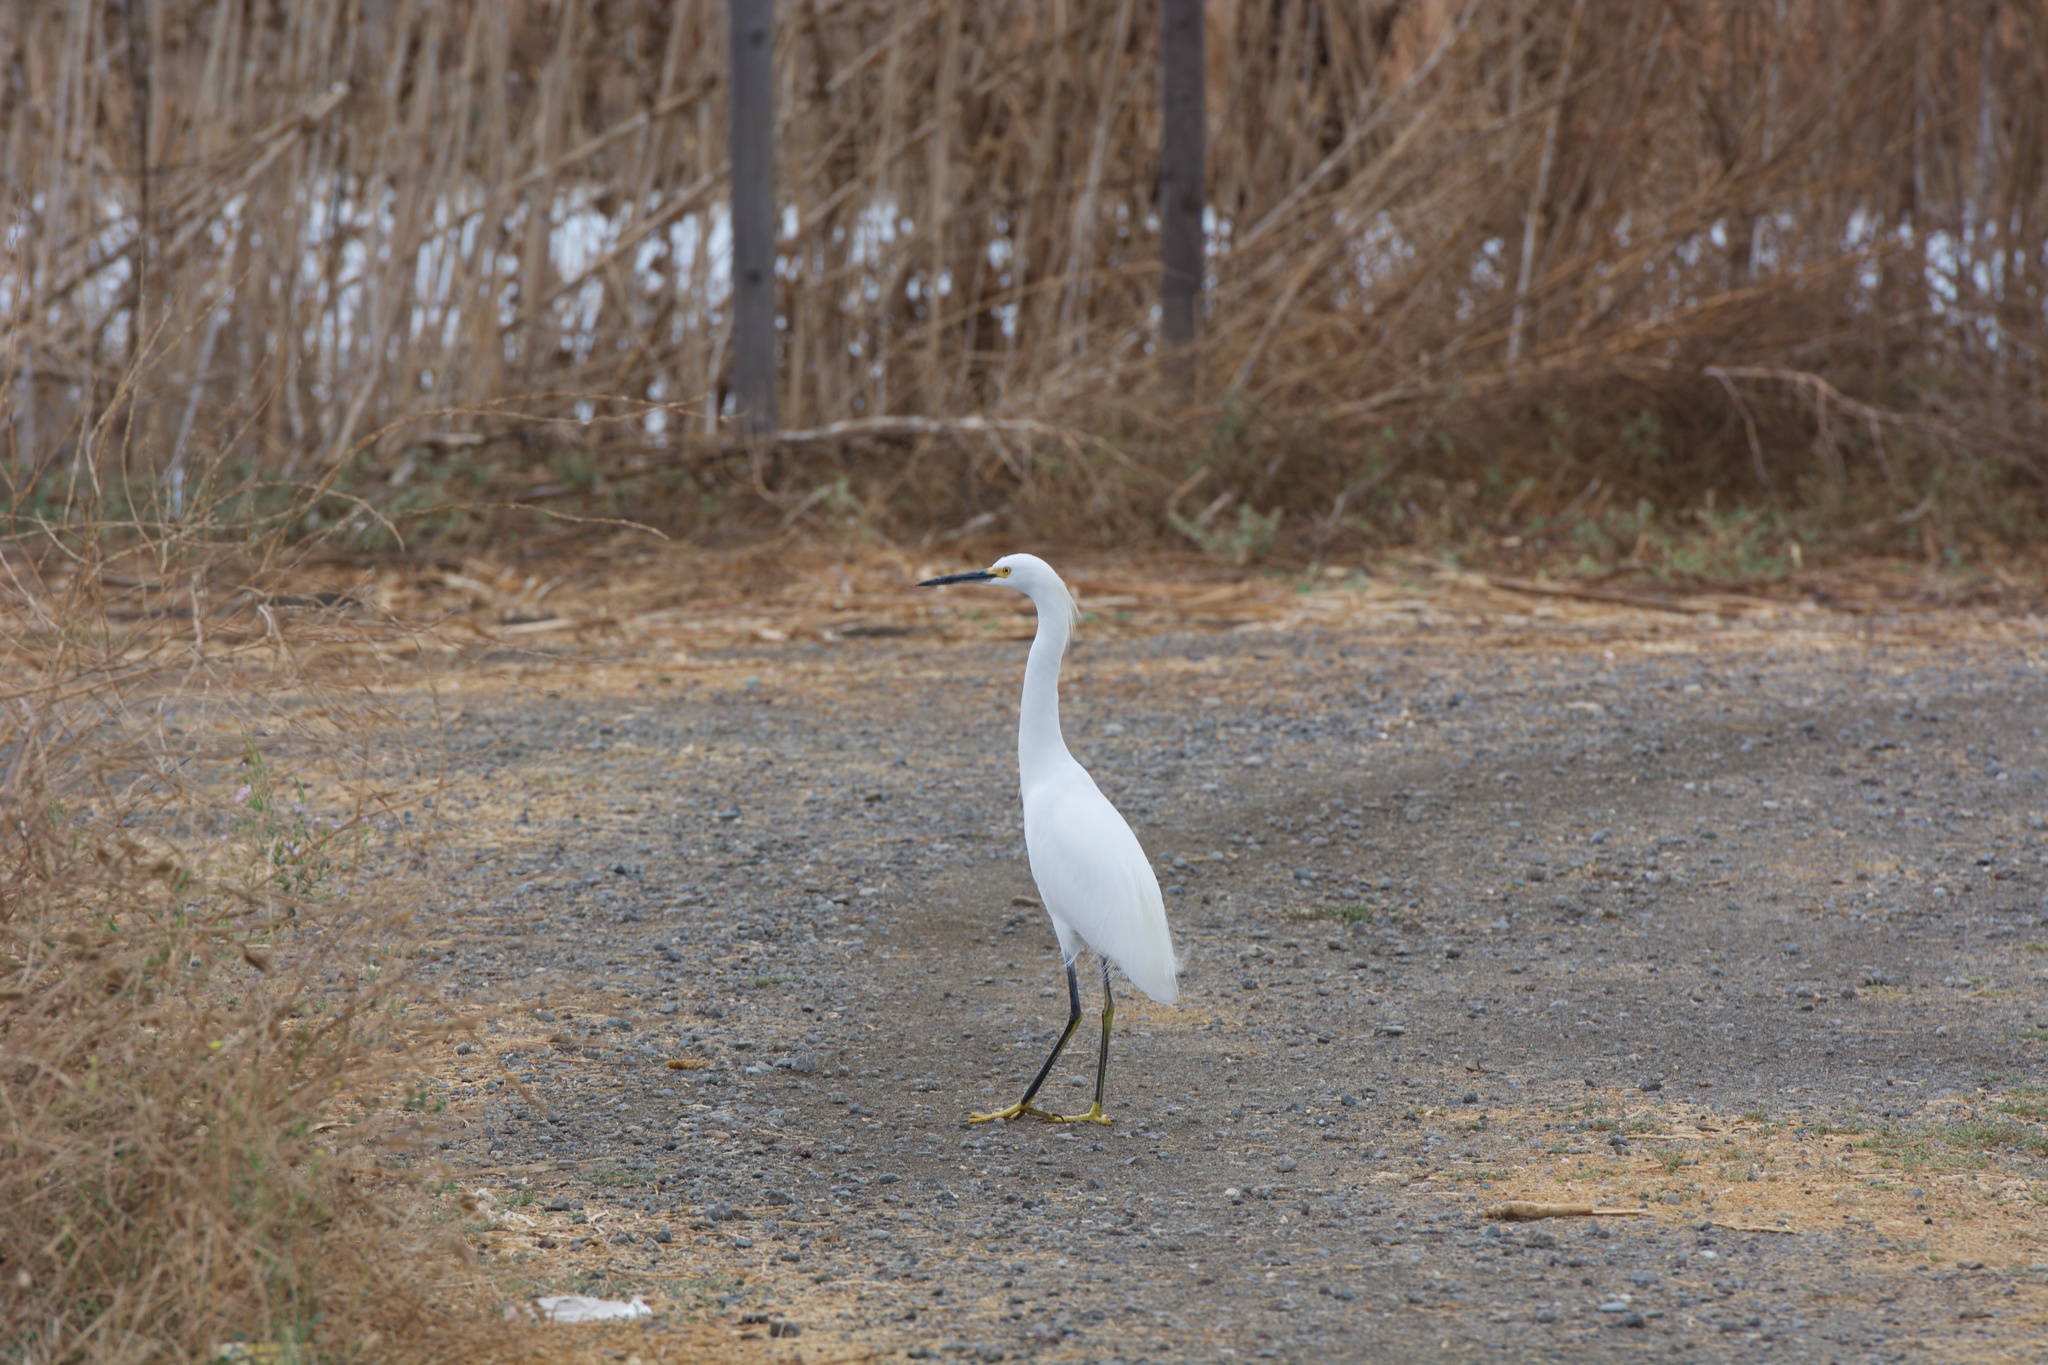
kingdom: Animalia
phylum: Chordata
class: Aves
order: Pelecaniformes
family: Ardeidae
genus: Egretta
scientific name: Egretta thula
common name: Snowy egret
